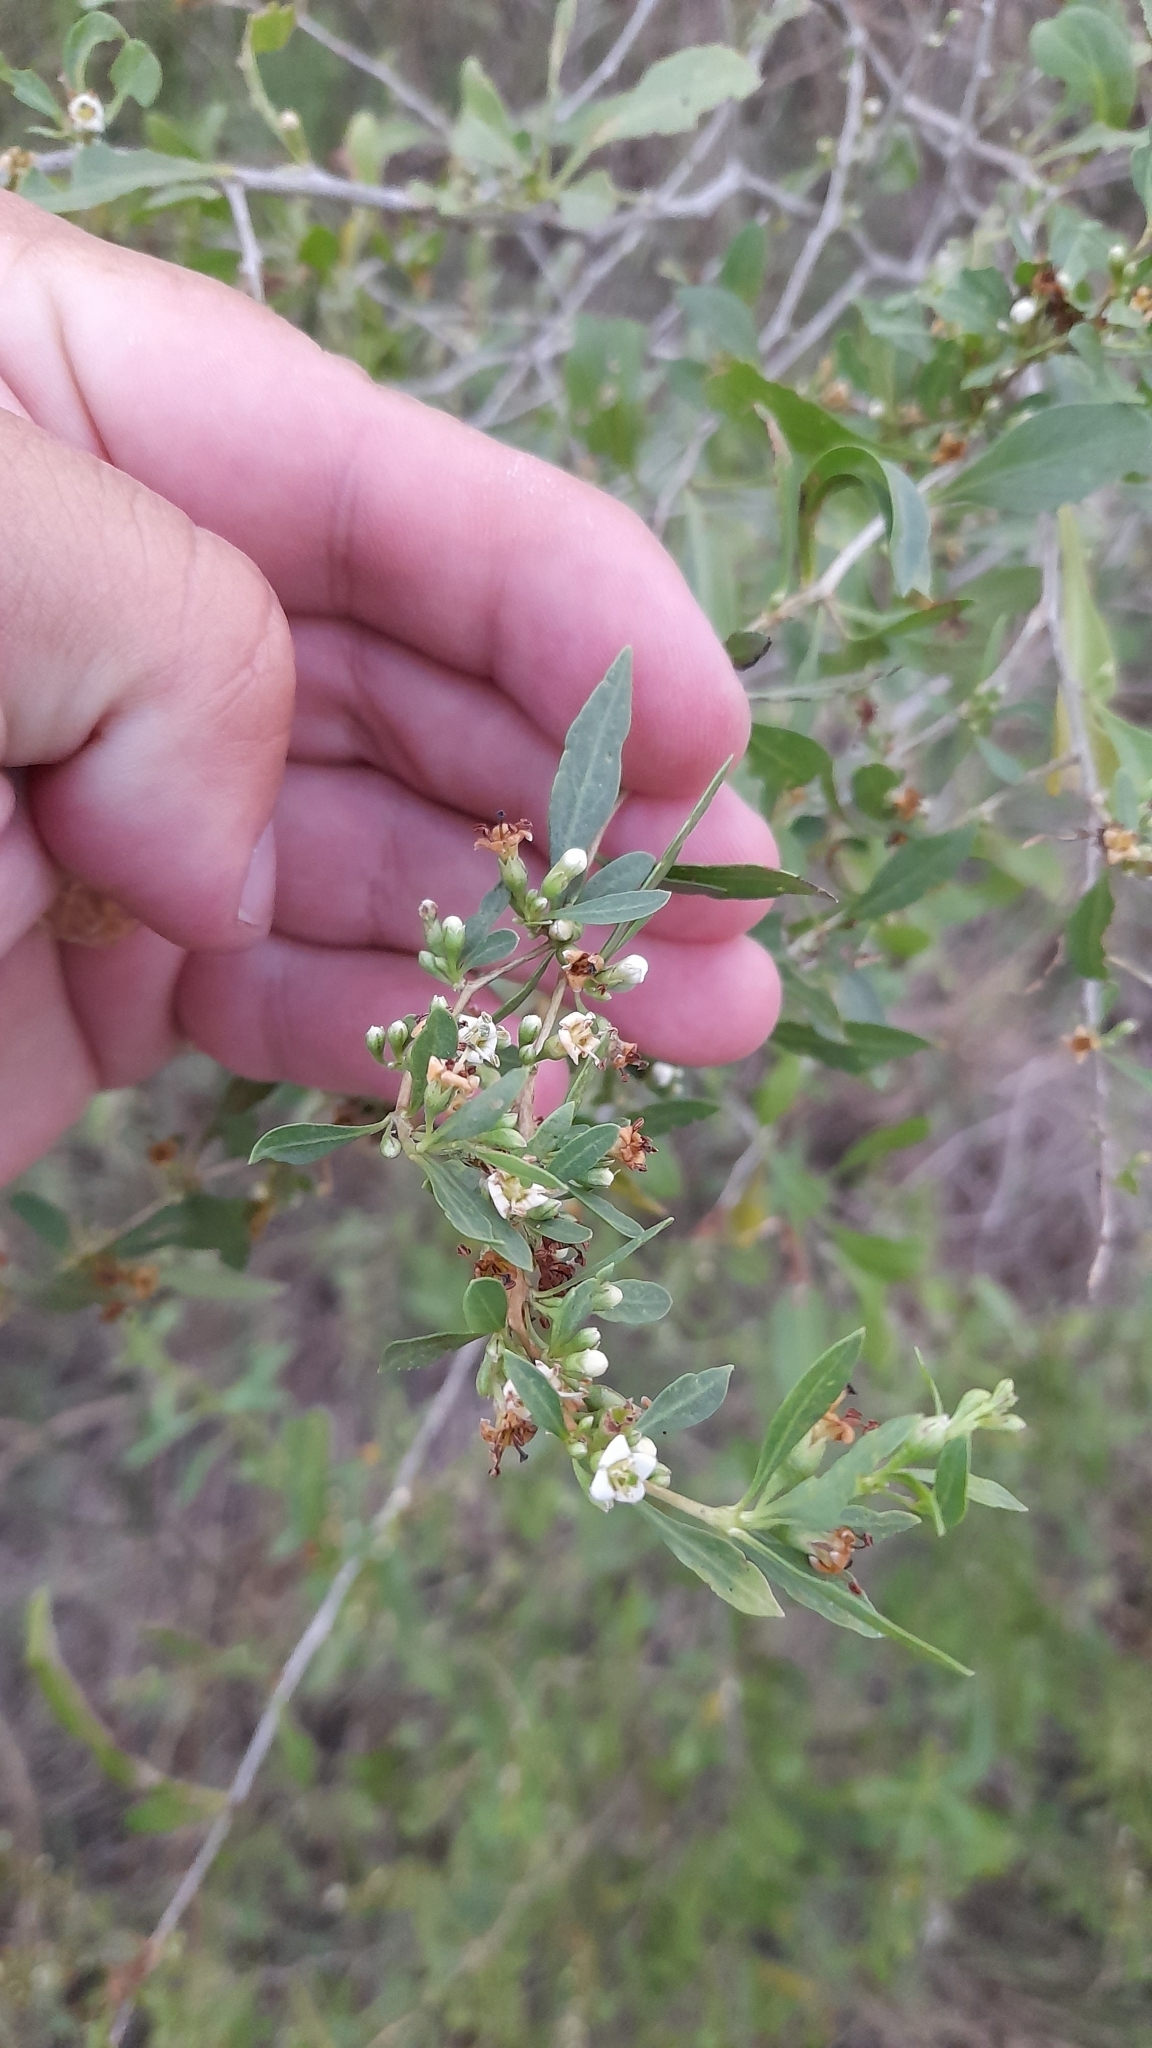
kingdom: Plantae
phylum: Tracheophyta
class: Magnoliopsida
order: Solanales
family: Solanaceae
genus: Lycium
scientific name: Lycium vimineum
